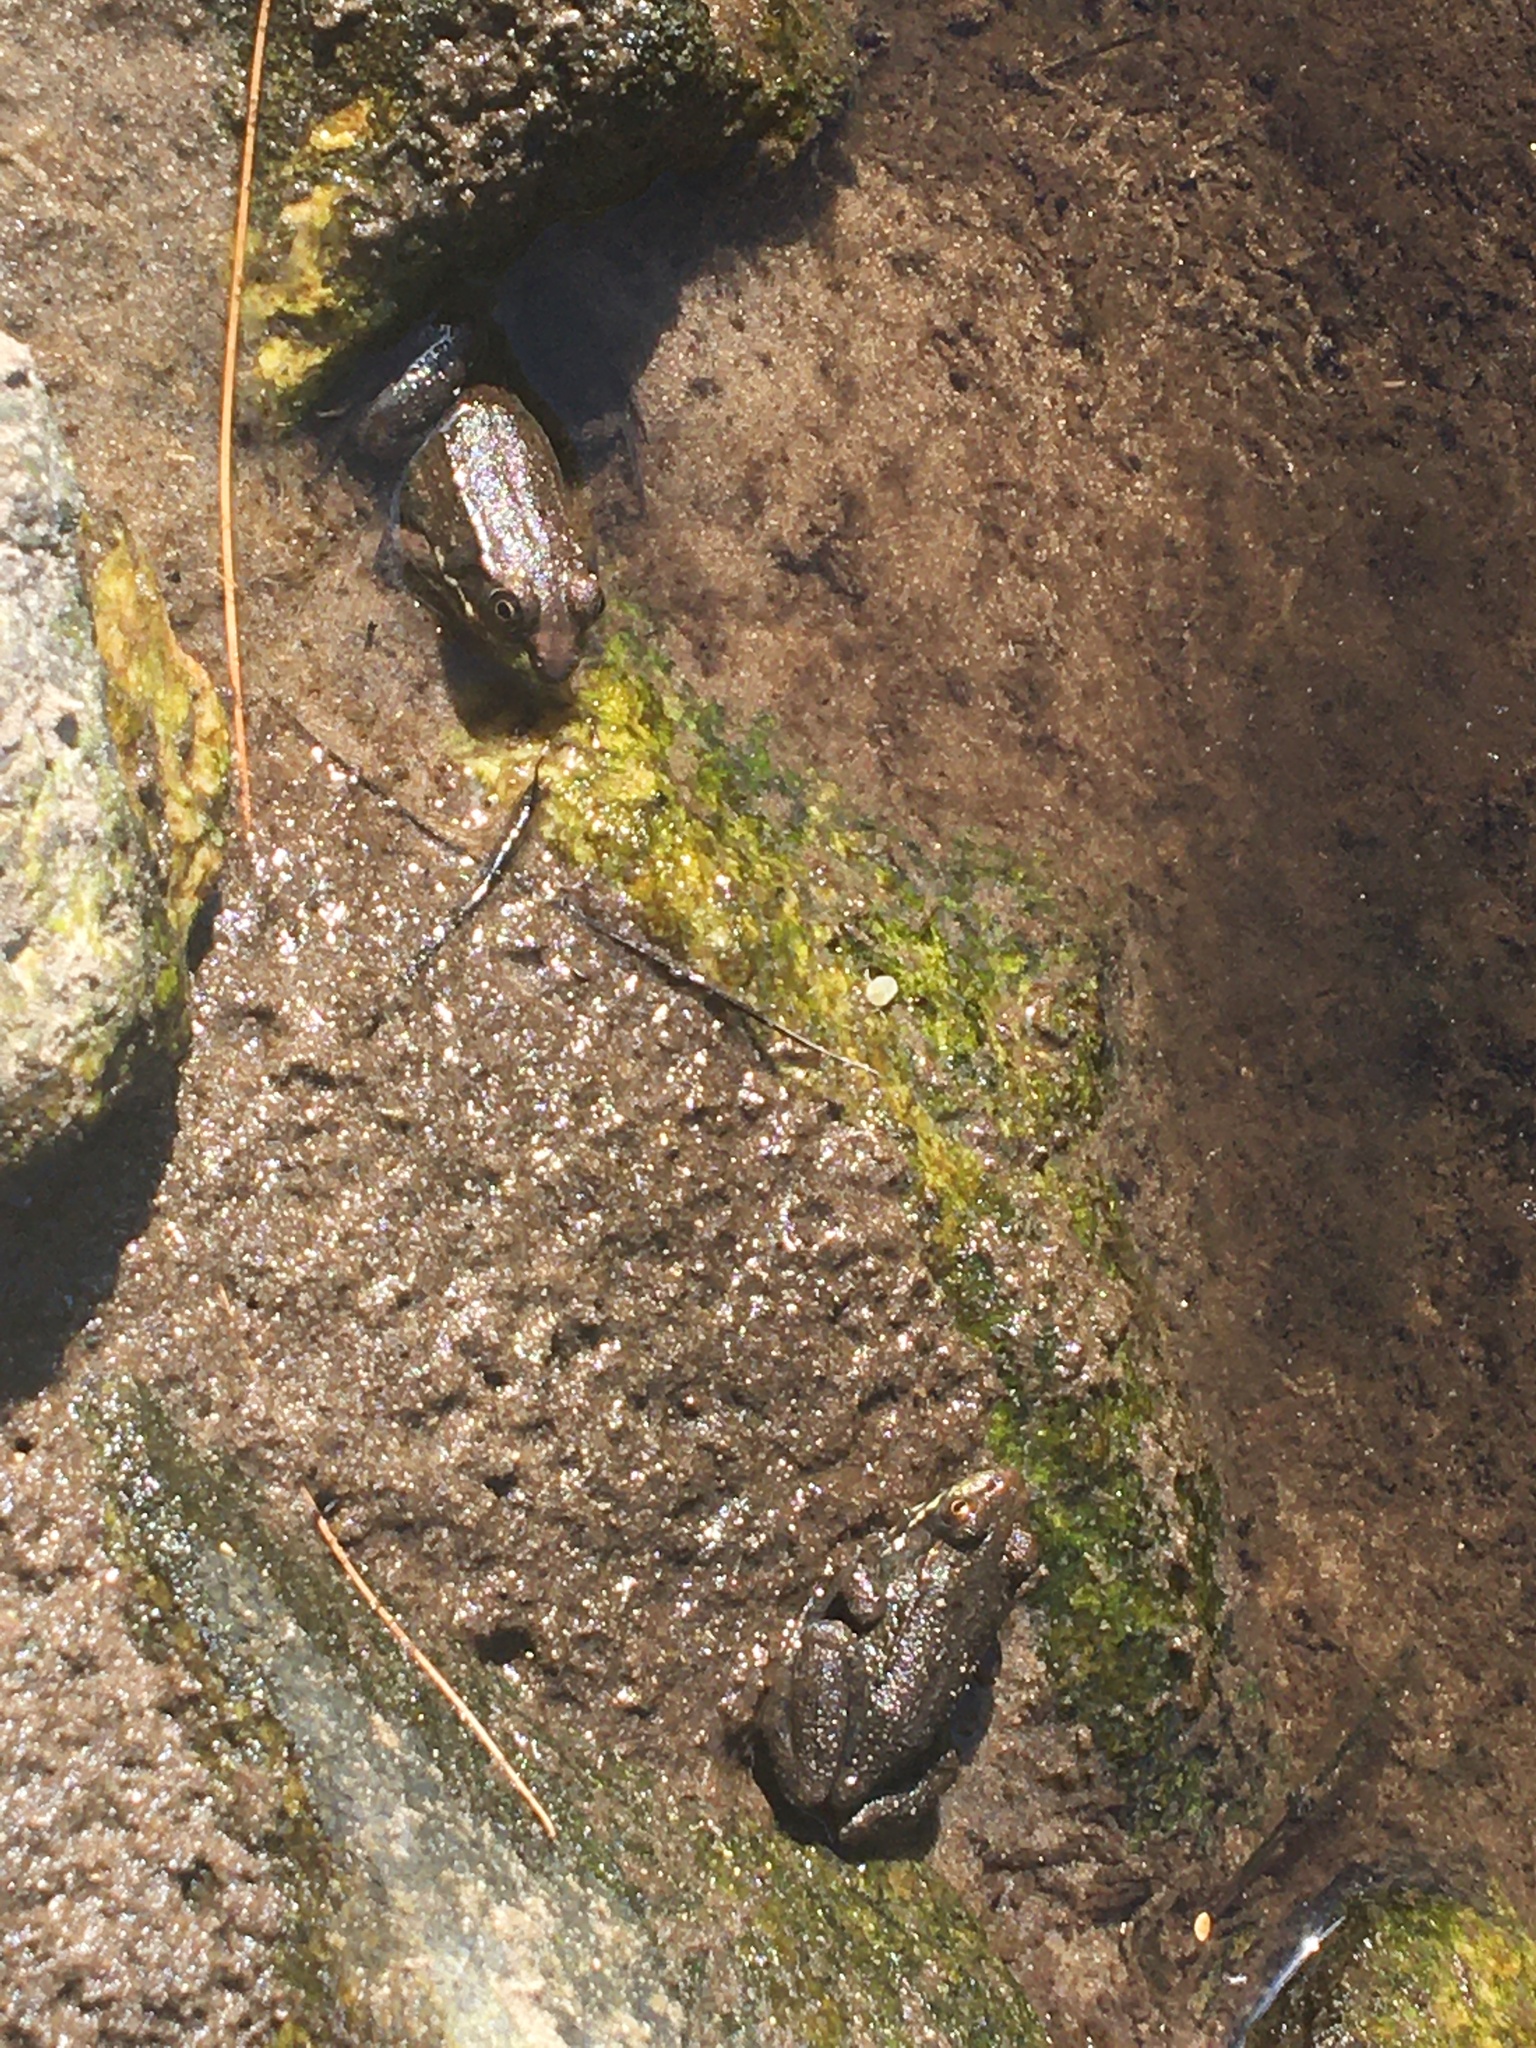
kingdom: Animalia
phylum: Chordata
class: Amphibia
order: Anura
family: Ranidae
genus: Lithobates
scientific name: Lithobates clamitans
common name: Green frog
